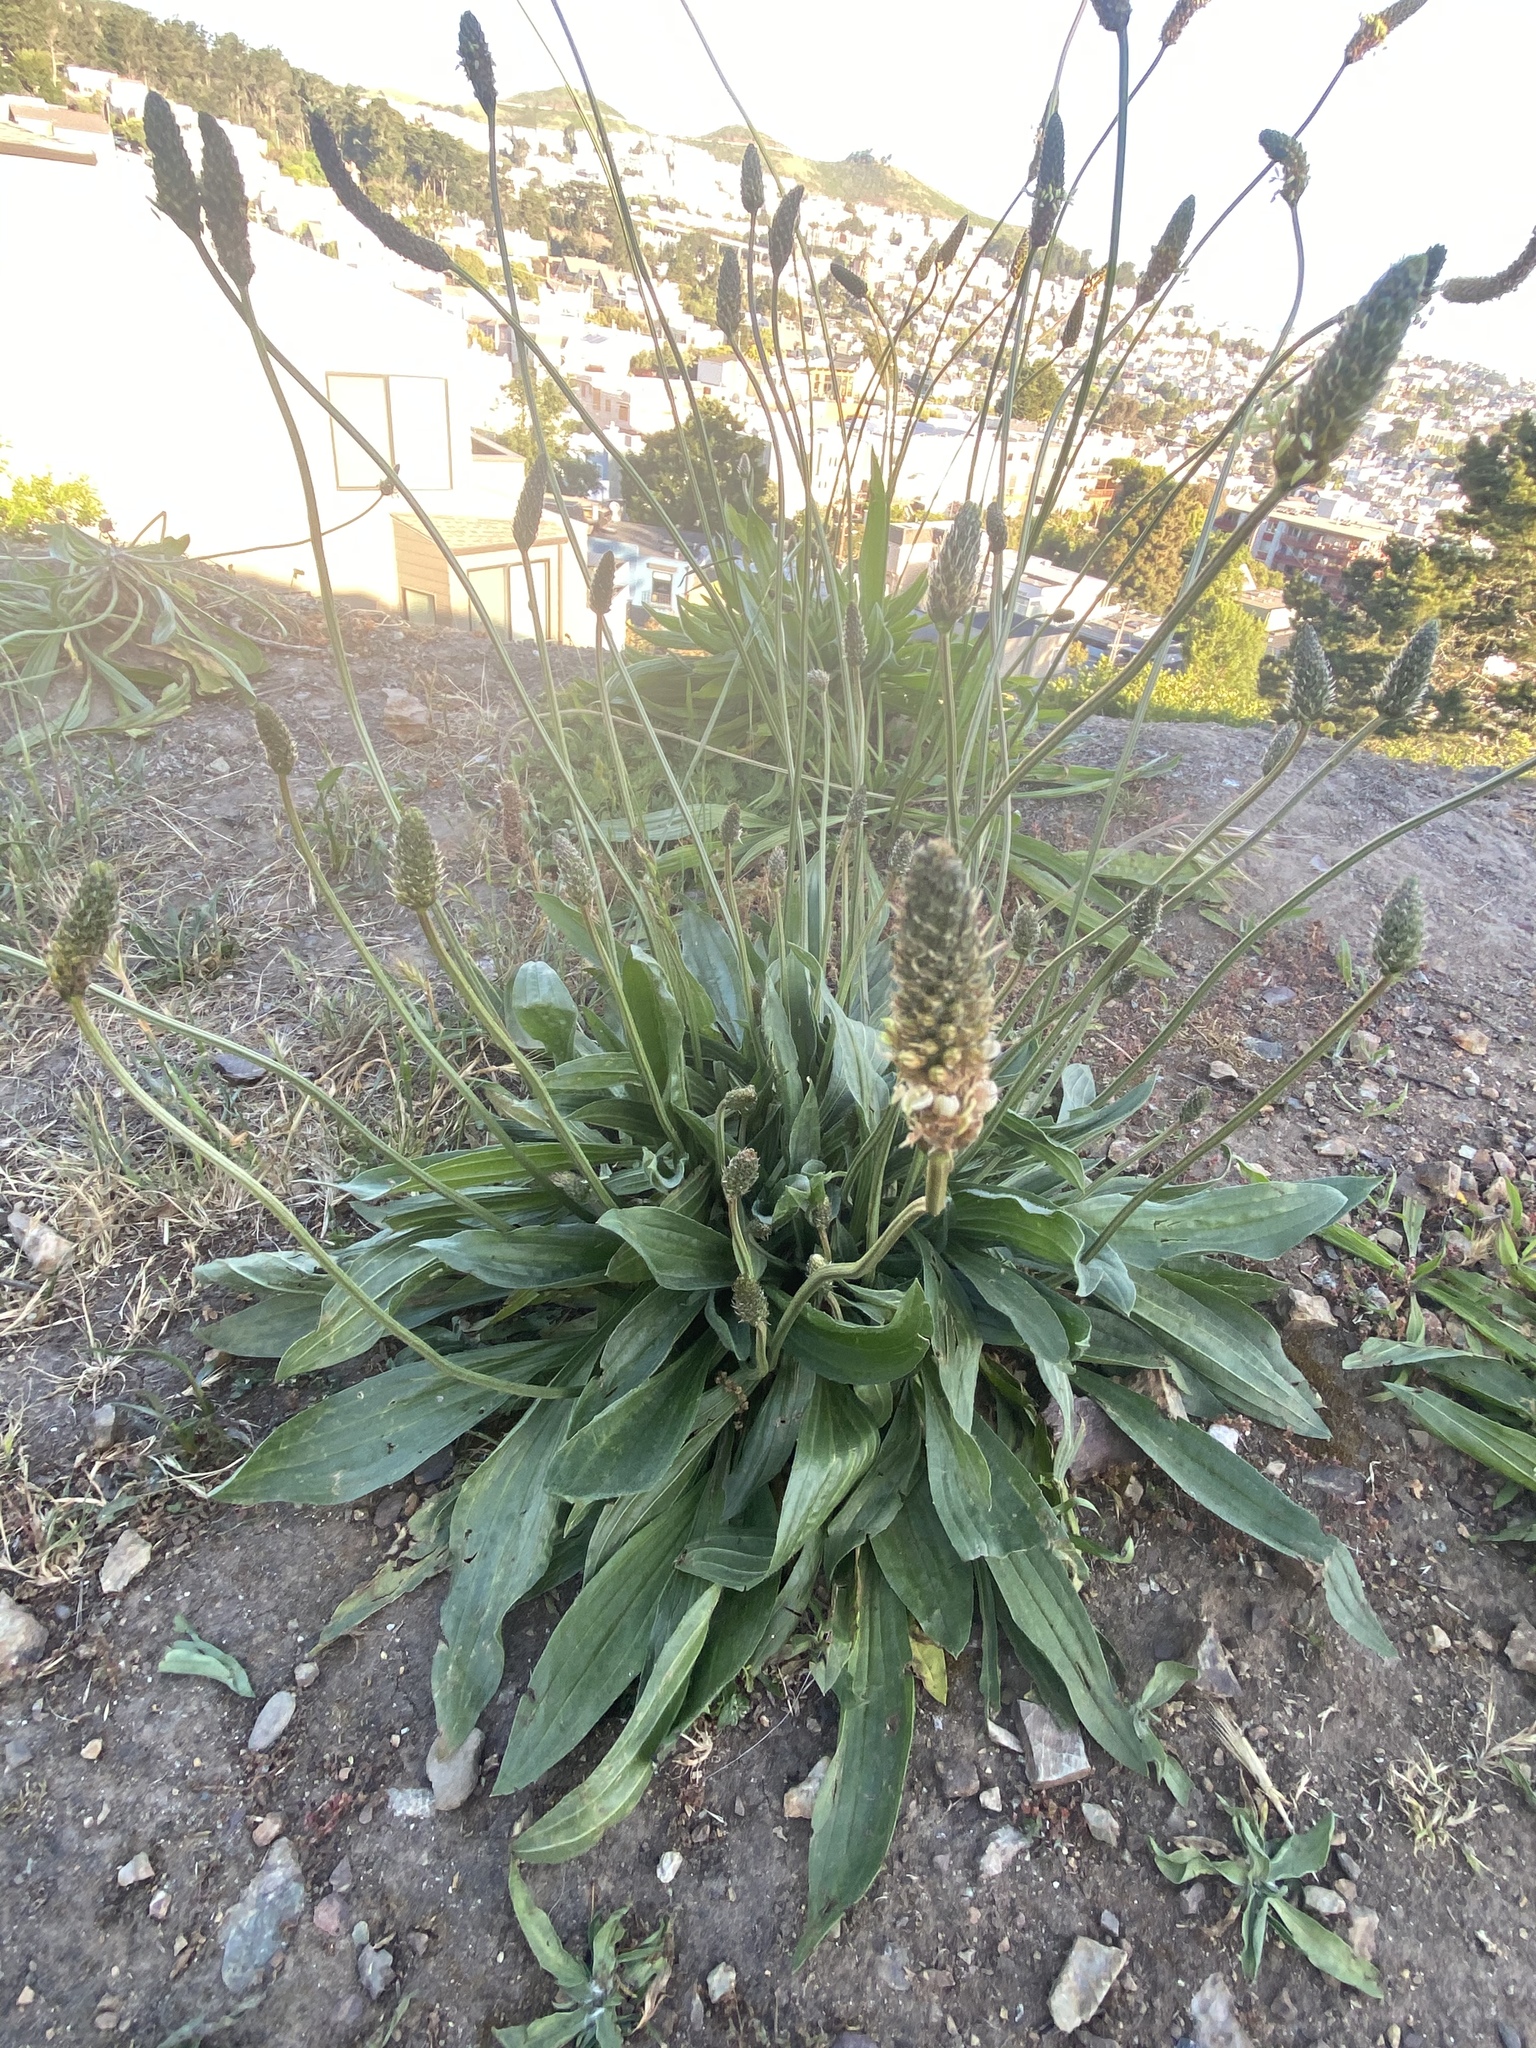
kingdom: Plantae
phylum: Tracheophyta
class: Magnoliopsida
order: Lamiales
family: Plantaginaceae
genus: Plantago
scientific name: Plantago lanceolata
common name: Ribwort plantain
